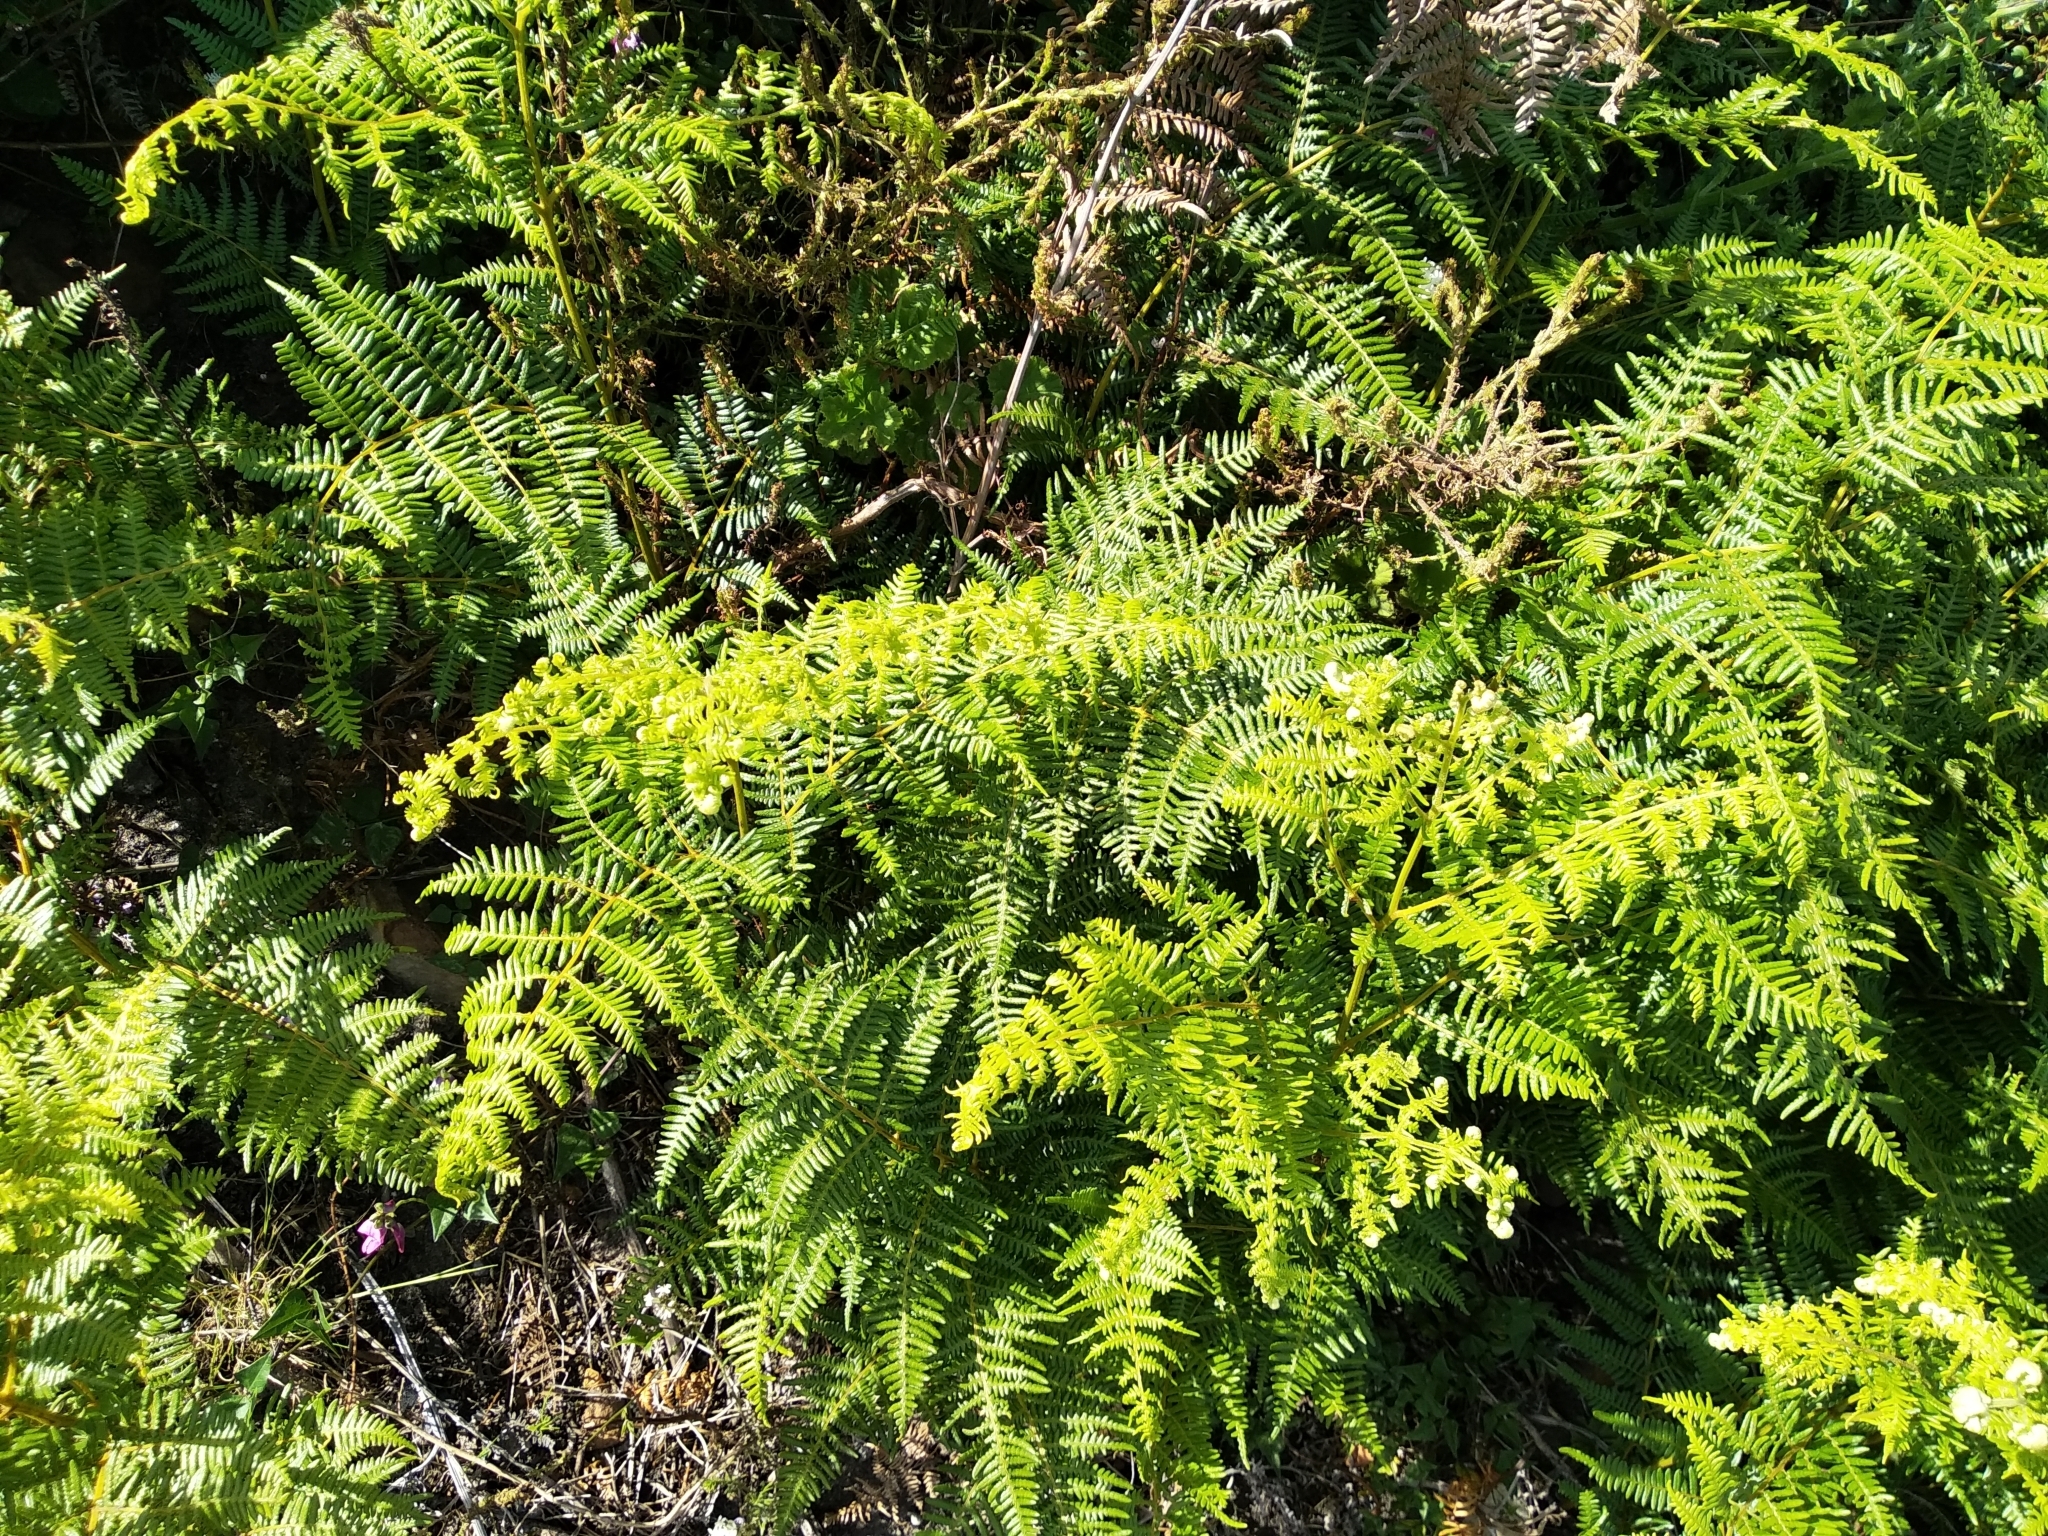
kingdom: Plantae
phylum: Tracheophyta
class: Polypodiopsida
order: Polypodiales
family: Dennstaedtiaceae
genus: Pteridium
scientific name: Pteridium aquilinum
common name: Bracken
